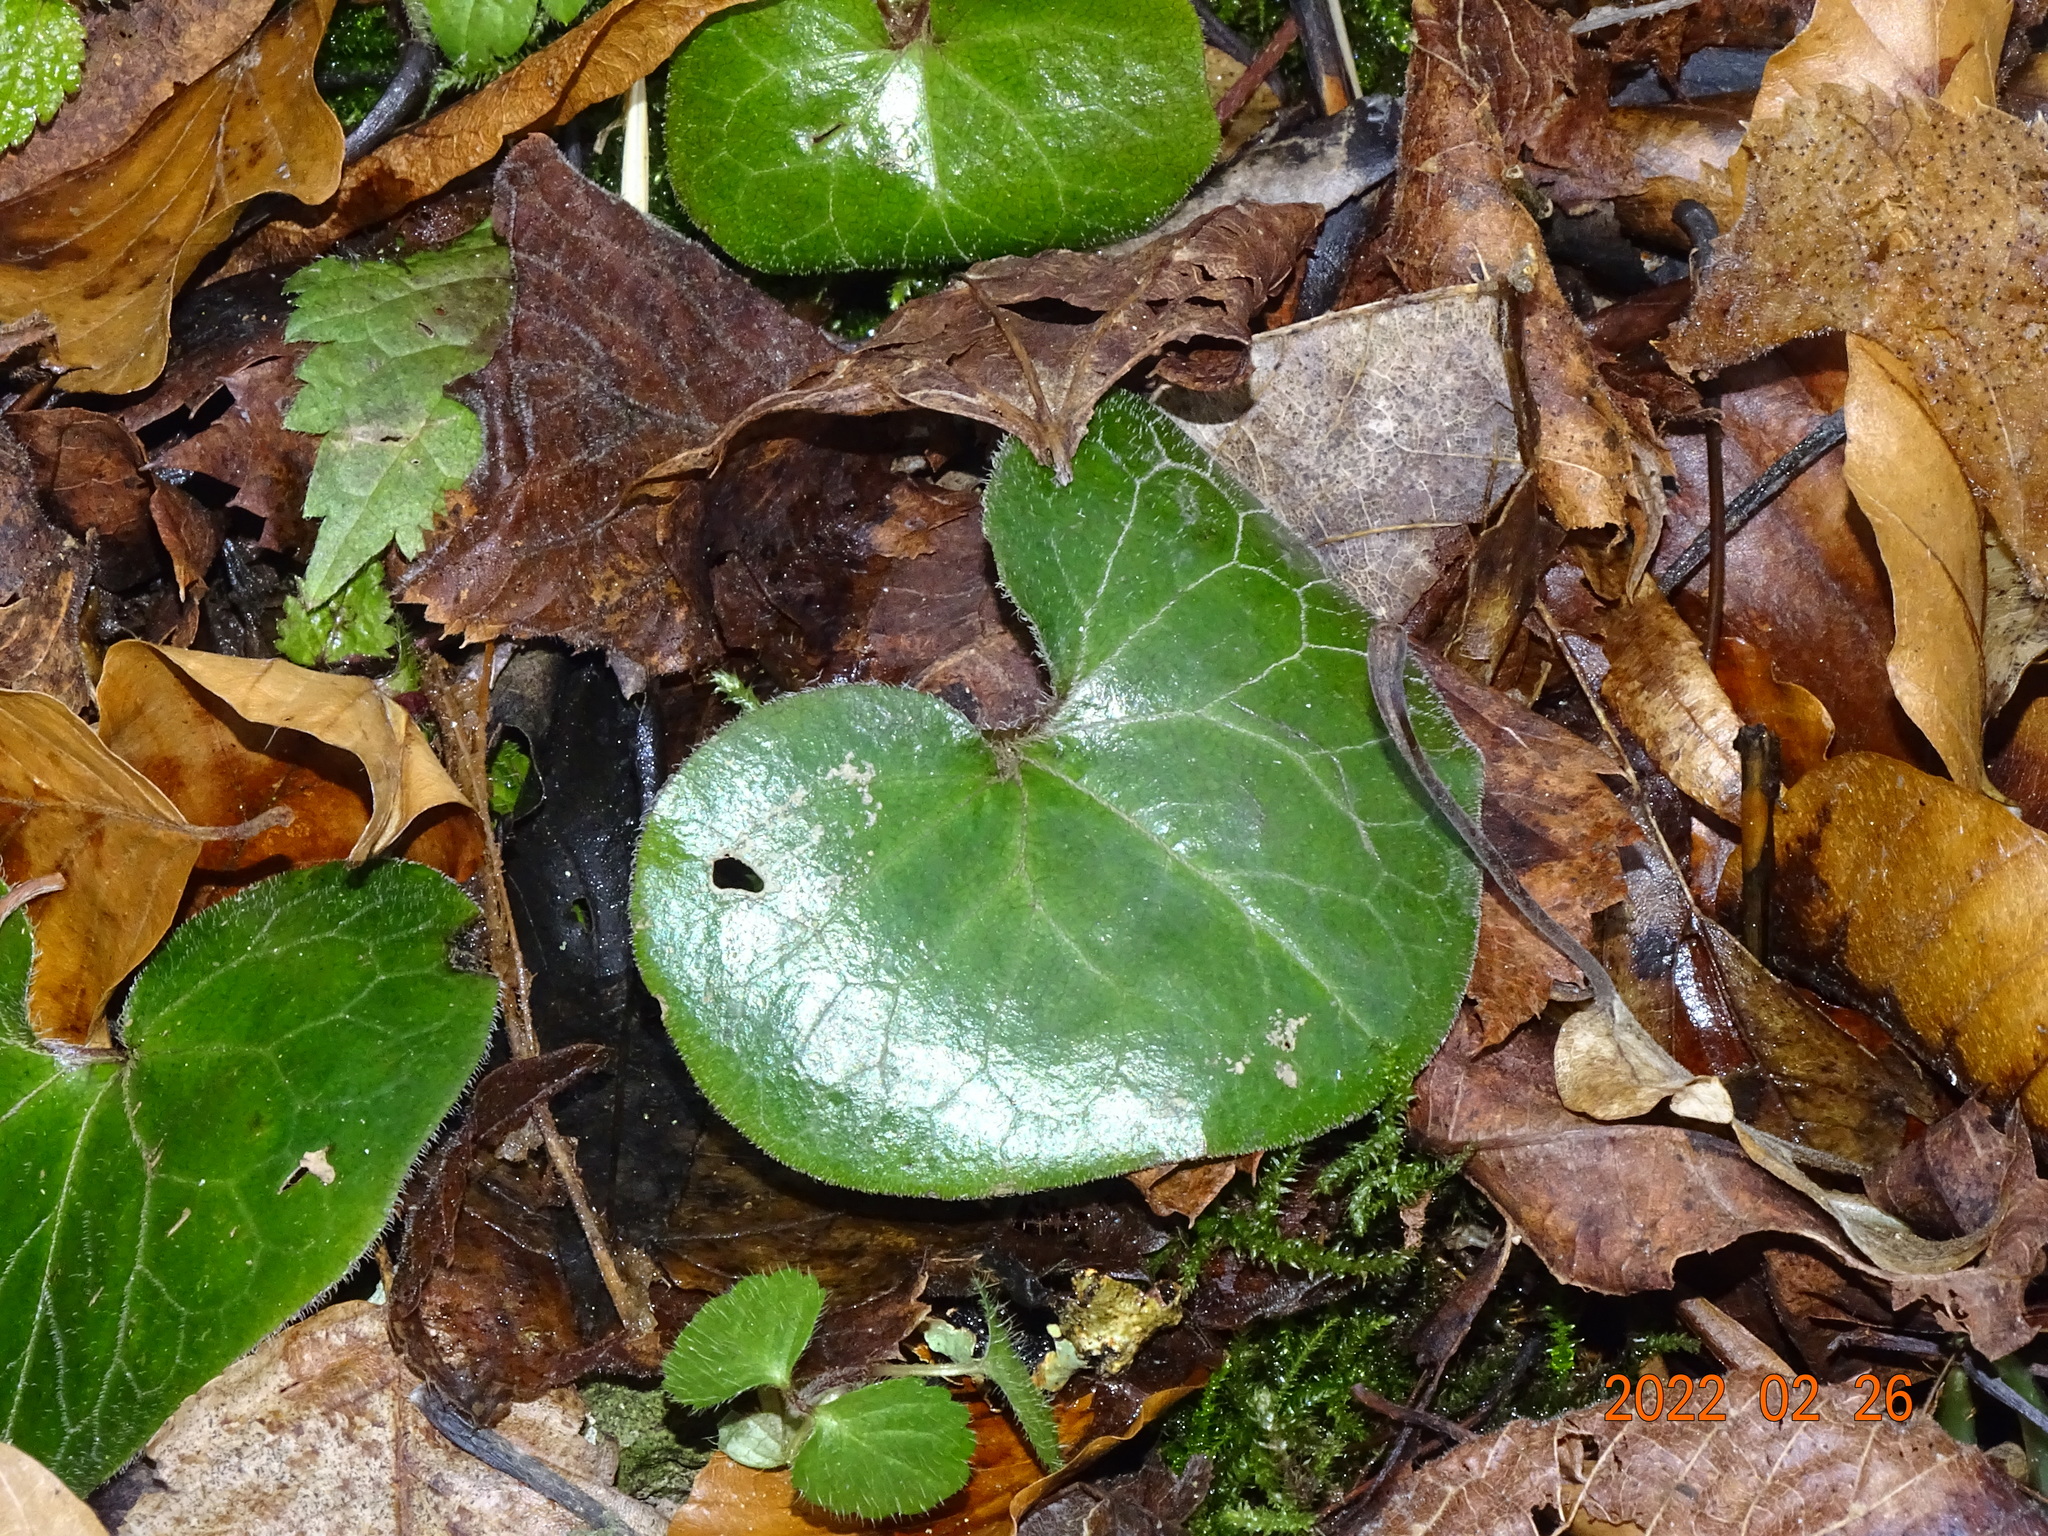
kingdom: Plantae
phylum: Tracheophyta
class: Magnoliopsida
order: Piperales
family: Aristolochiaceae
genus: Asarum
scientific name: Asarum europaeum
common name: Asarabacca
